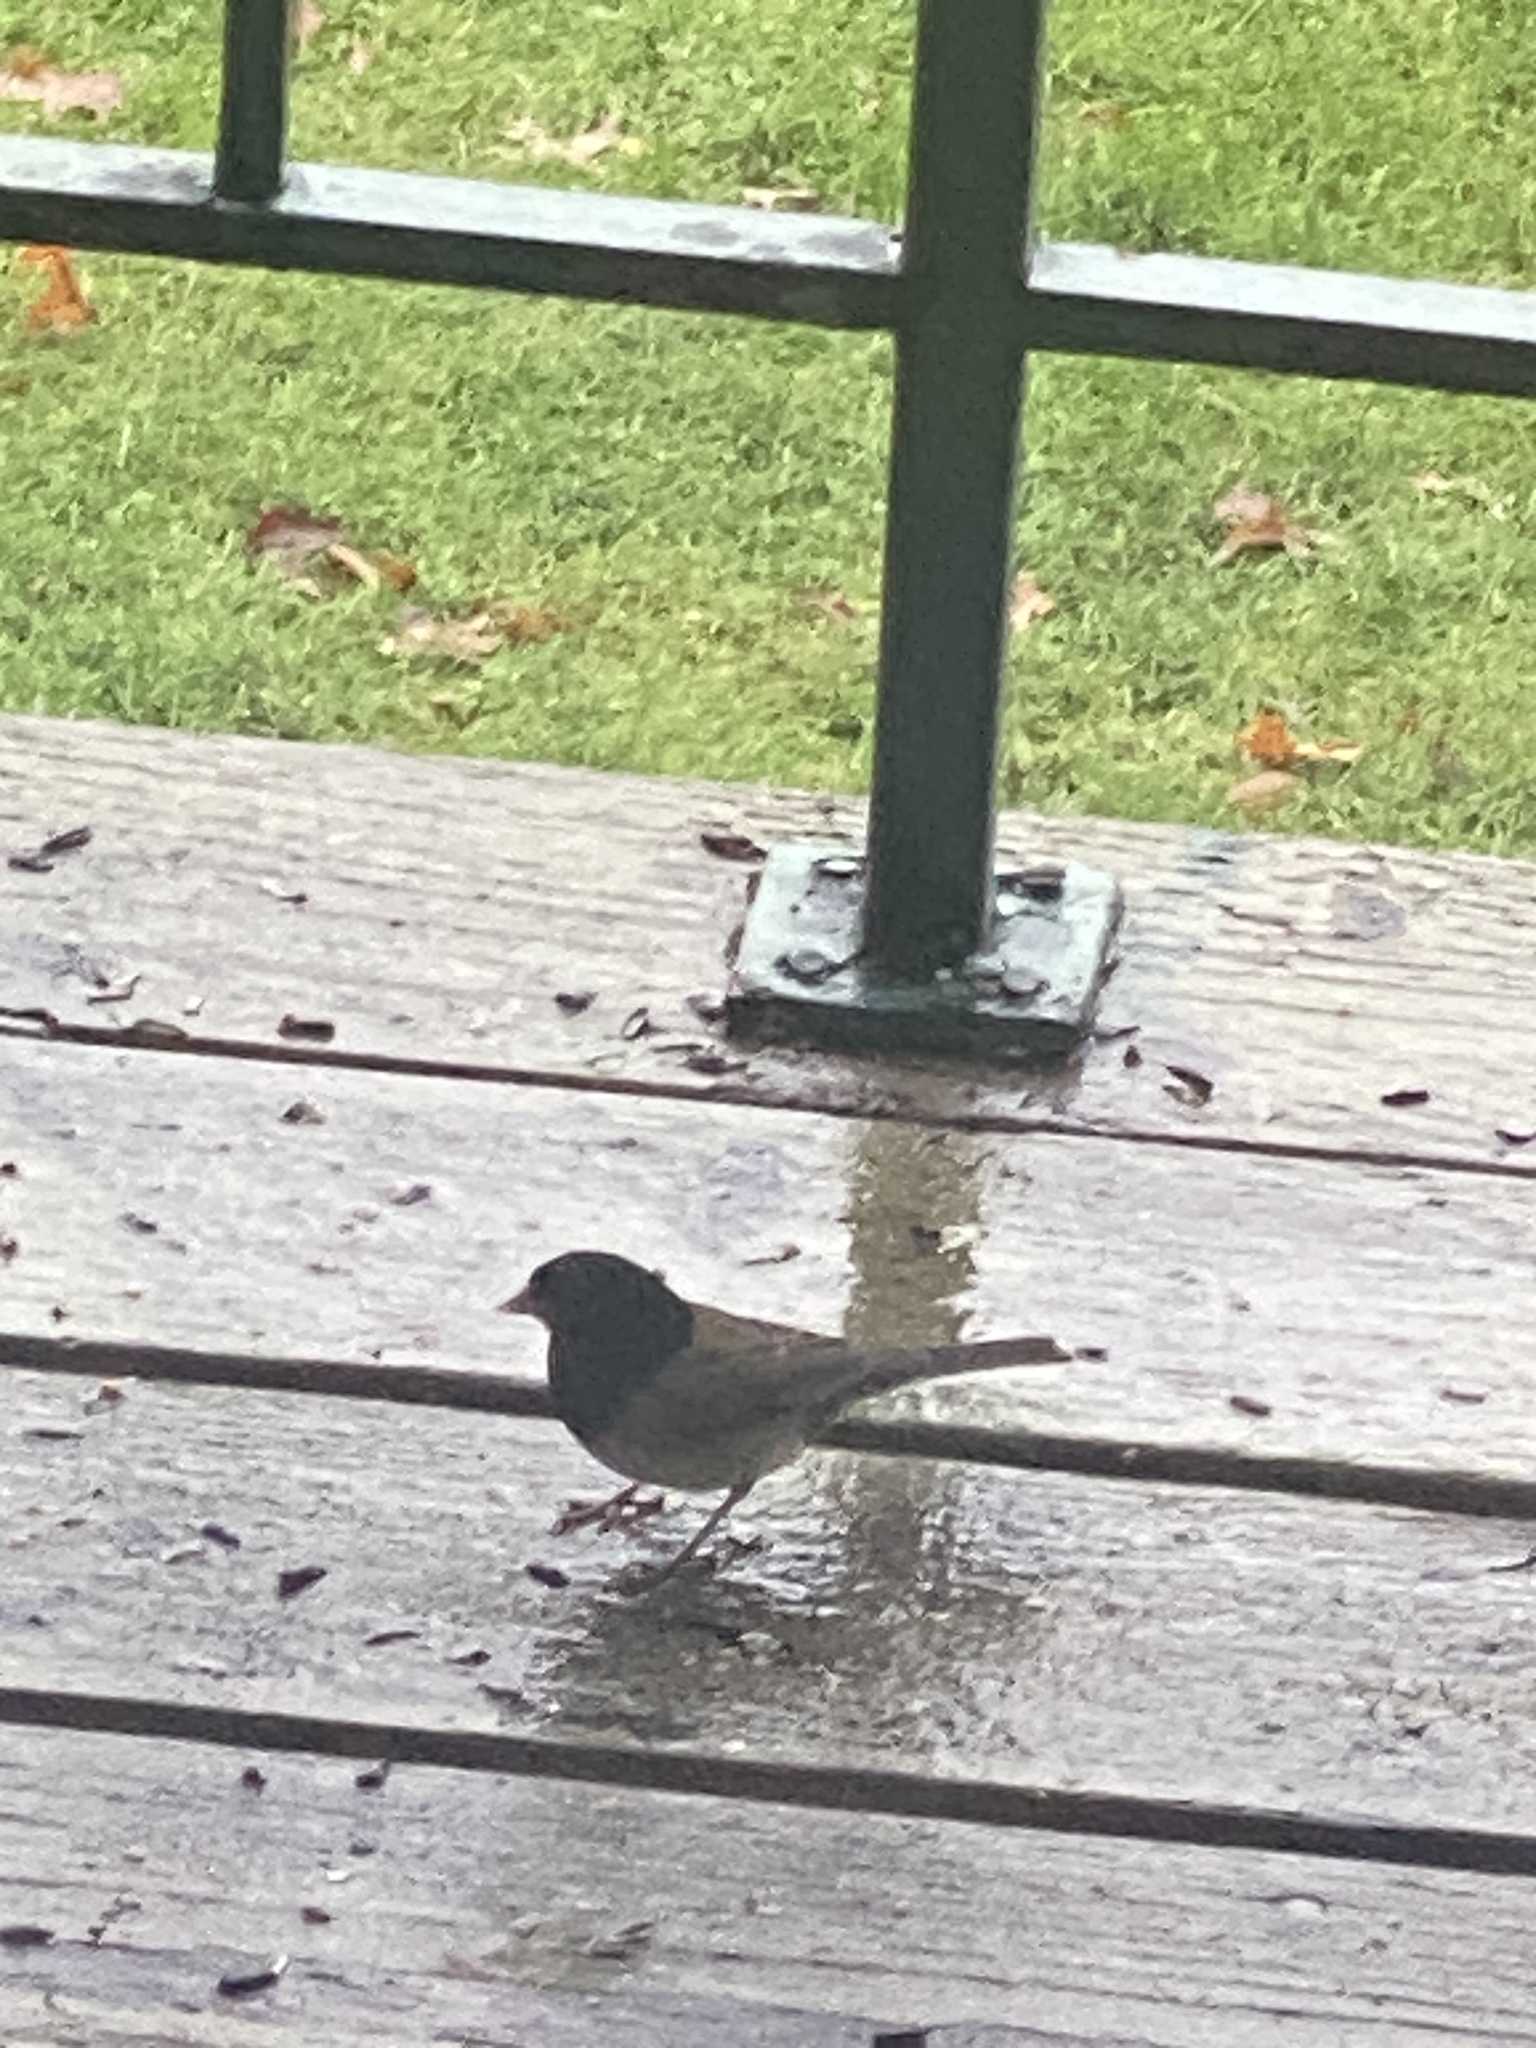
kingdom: Animalia
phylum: Chordata
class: Aves
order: Passeriformes
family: Passerellidae
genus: Junco
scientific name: Junco hyemalis
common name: Dark-eyed junco
